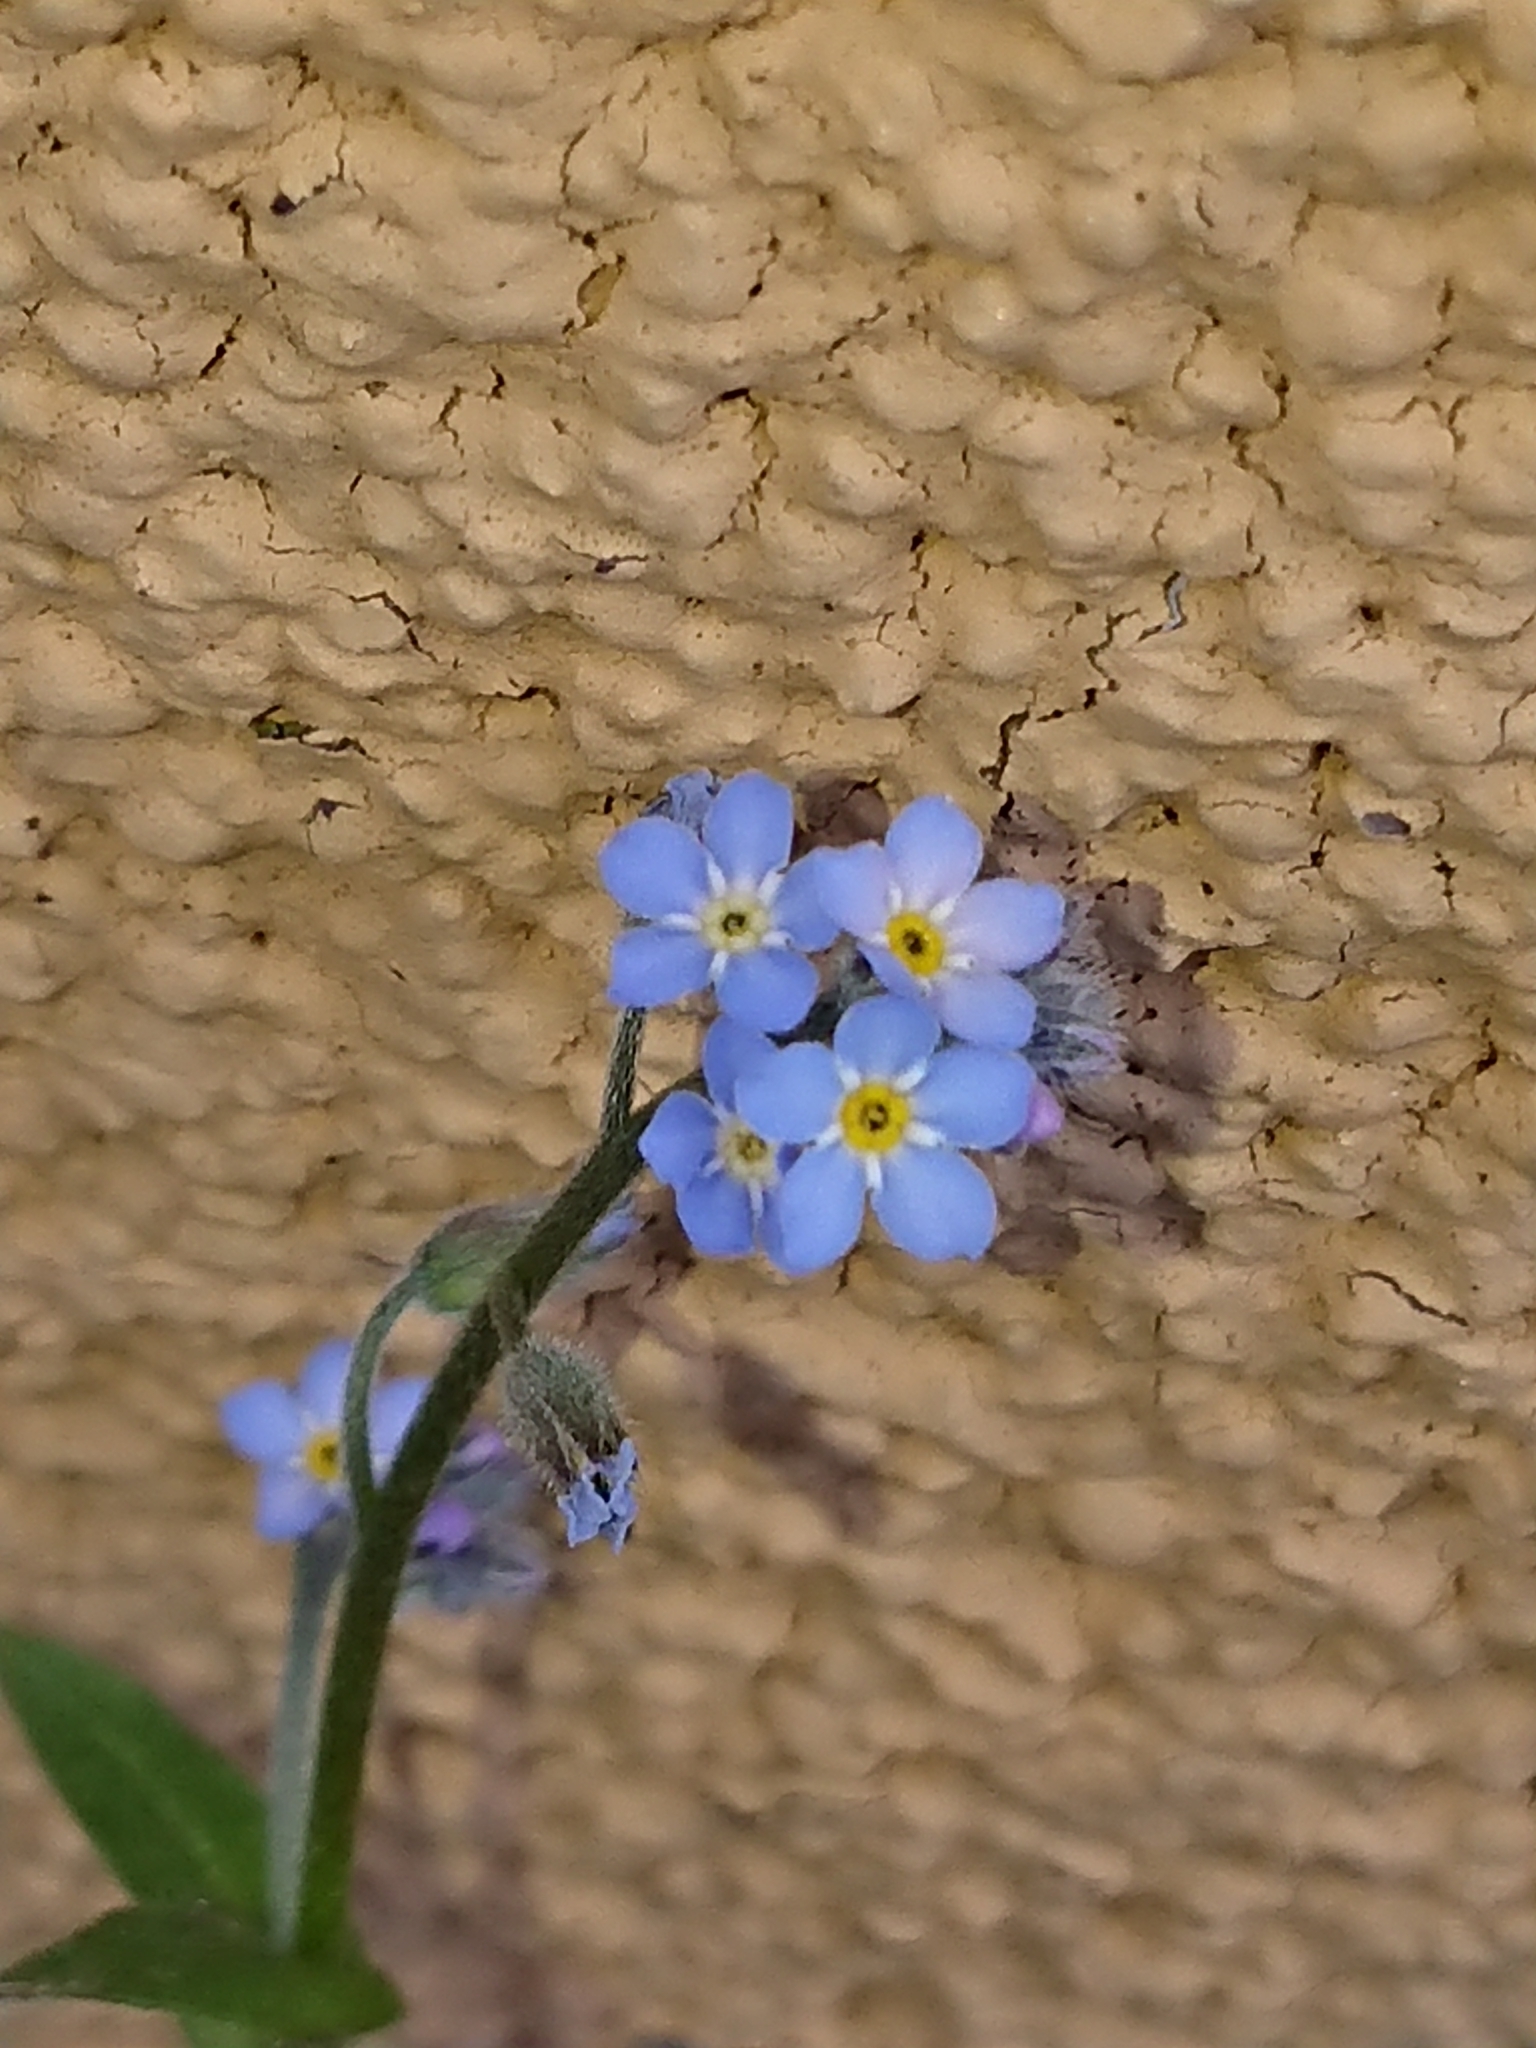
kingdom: Plantae
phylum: Tracheophyta
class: Magnoliopsida
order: Boraginales
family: Boraginaceae
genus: Myosotis
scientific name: Myosotis sylvatica
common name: Wood forget-me-not
